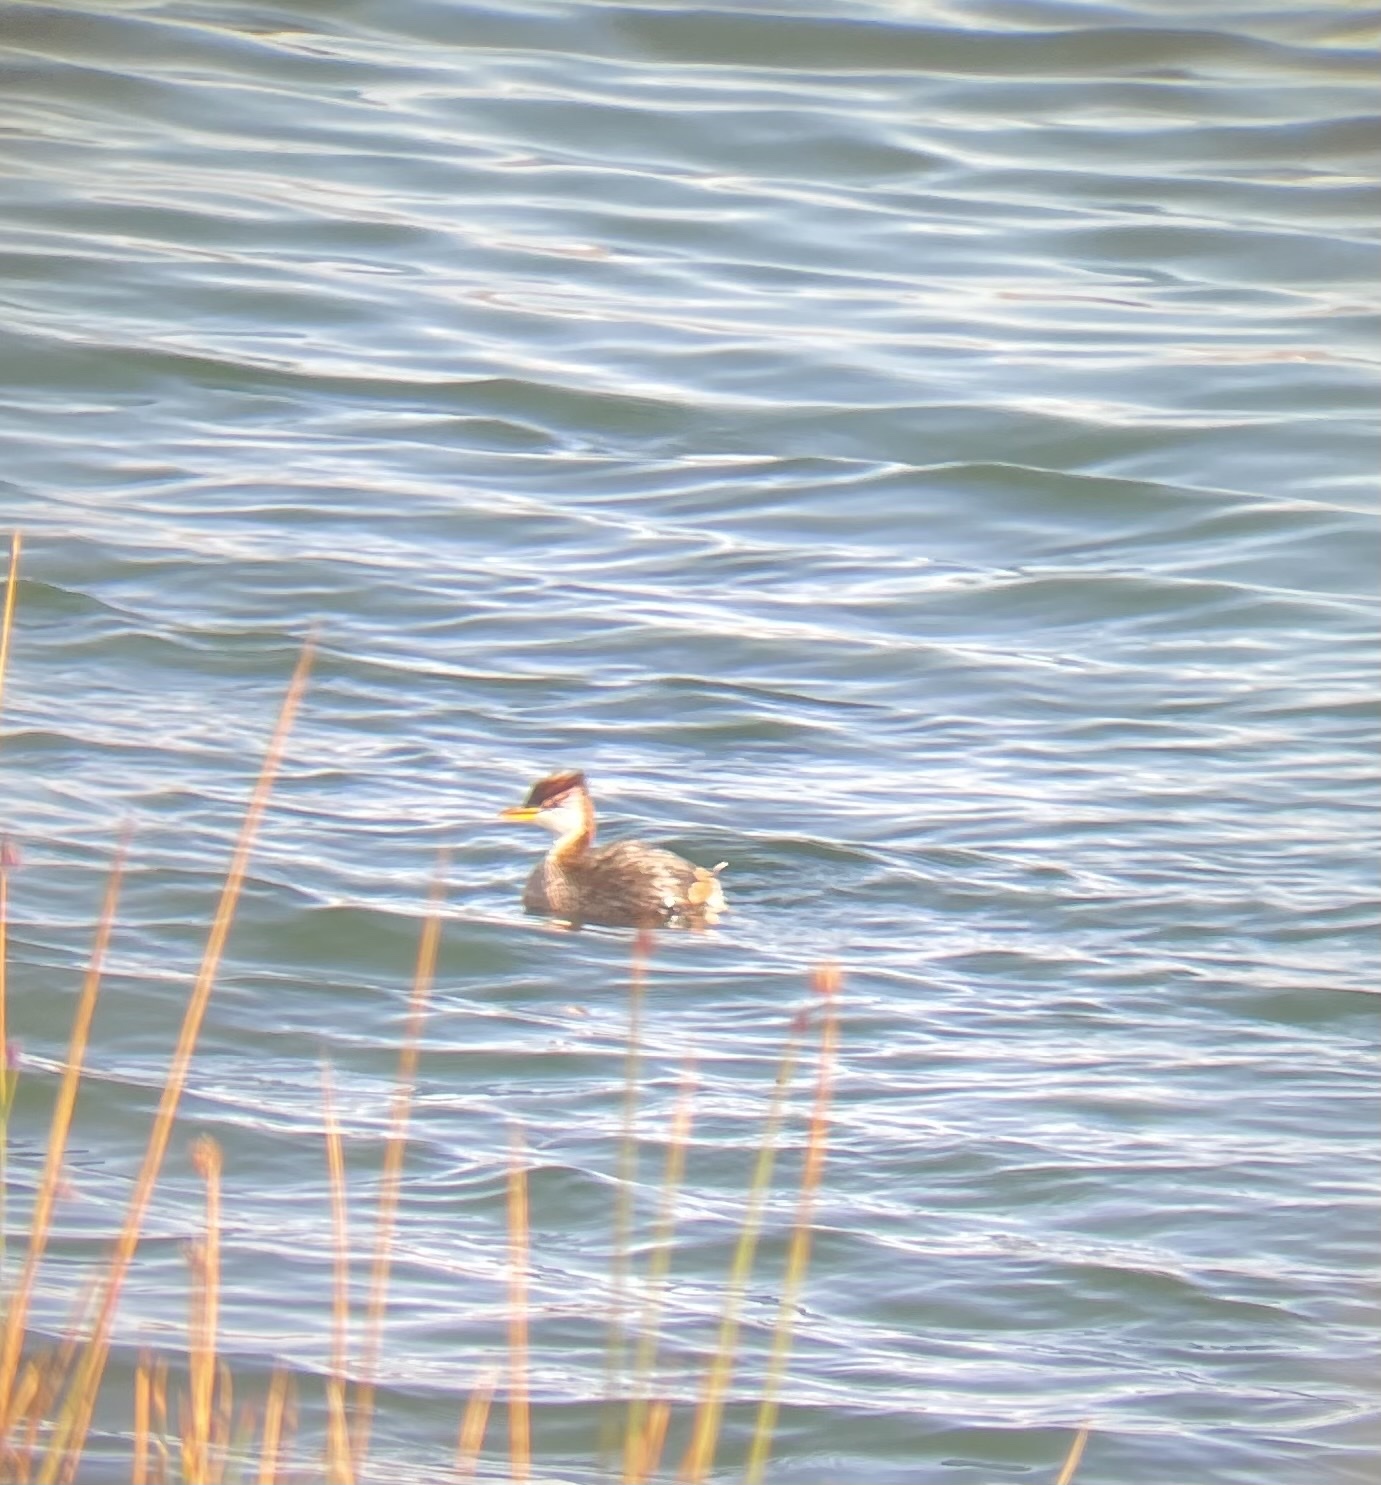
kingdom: Animalia
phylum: Chordata
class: Aves
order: Podicipediformes
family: Podicipedidae
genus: Rollandia
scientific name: Rollandia microptera
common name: Titicaca grebe
